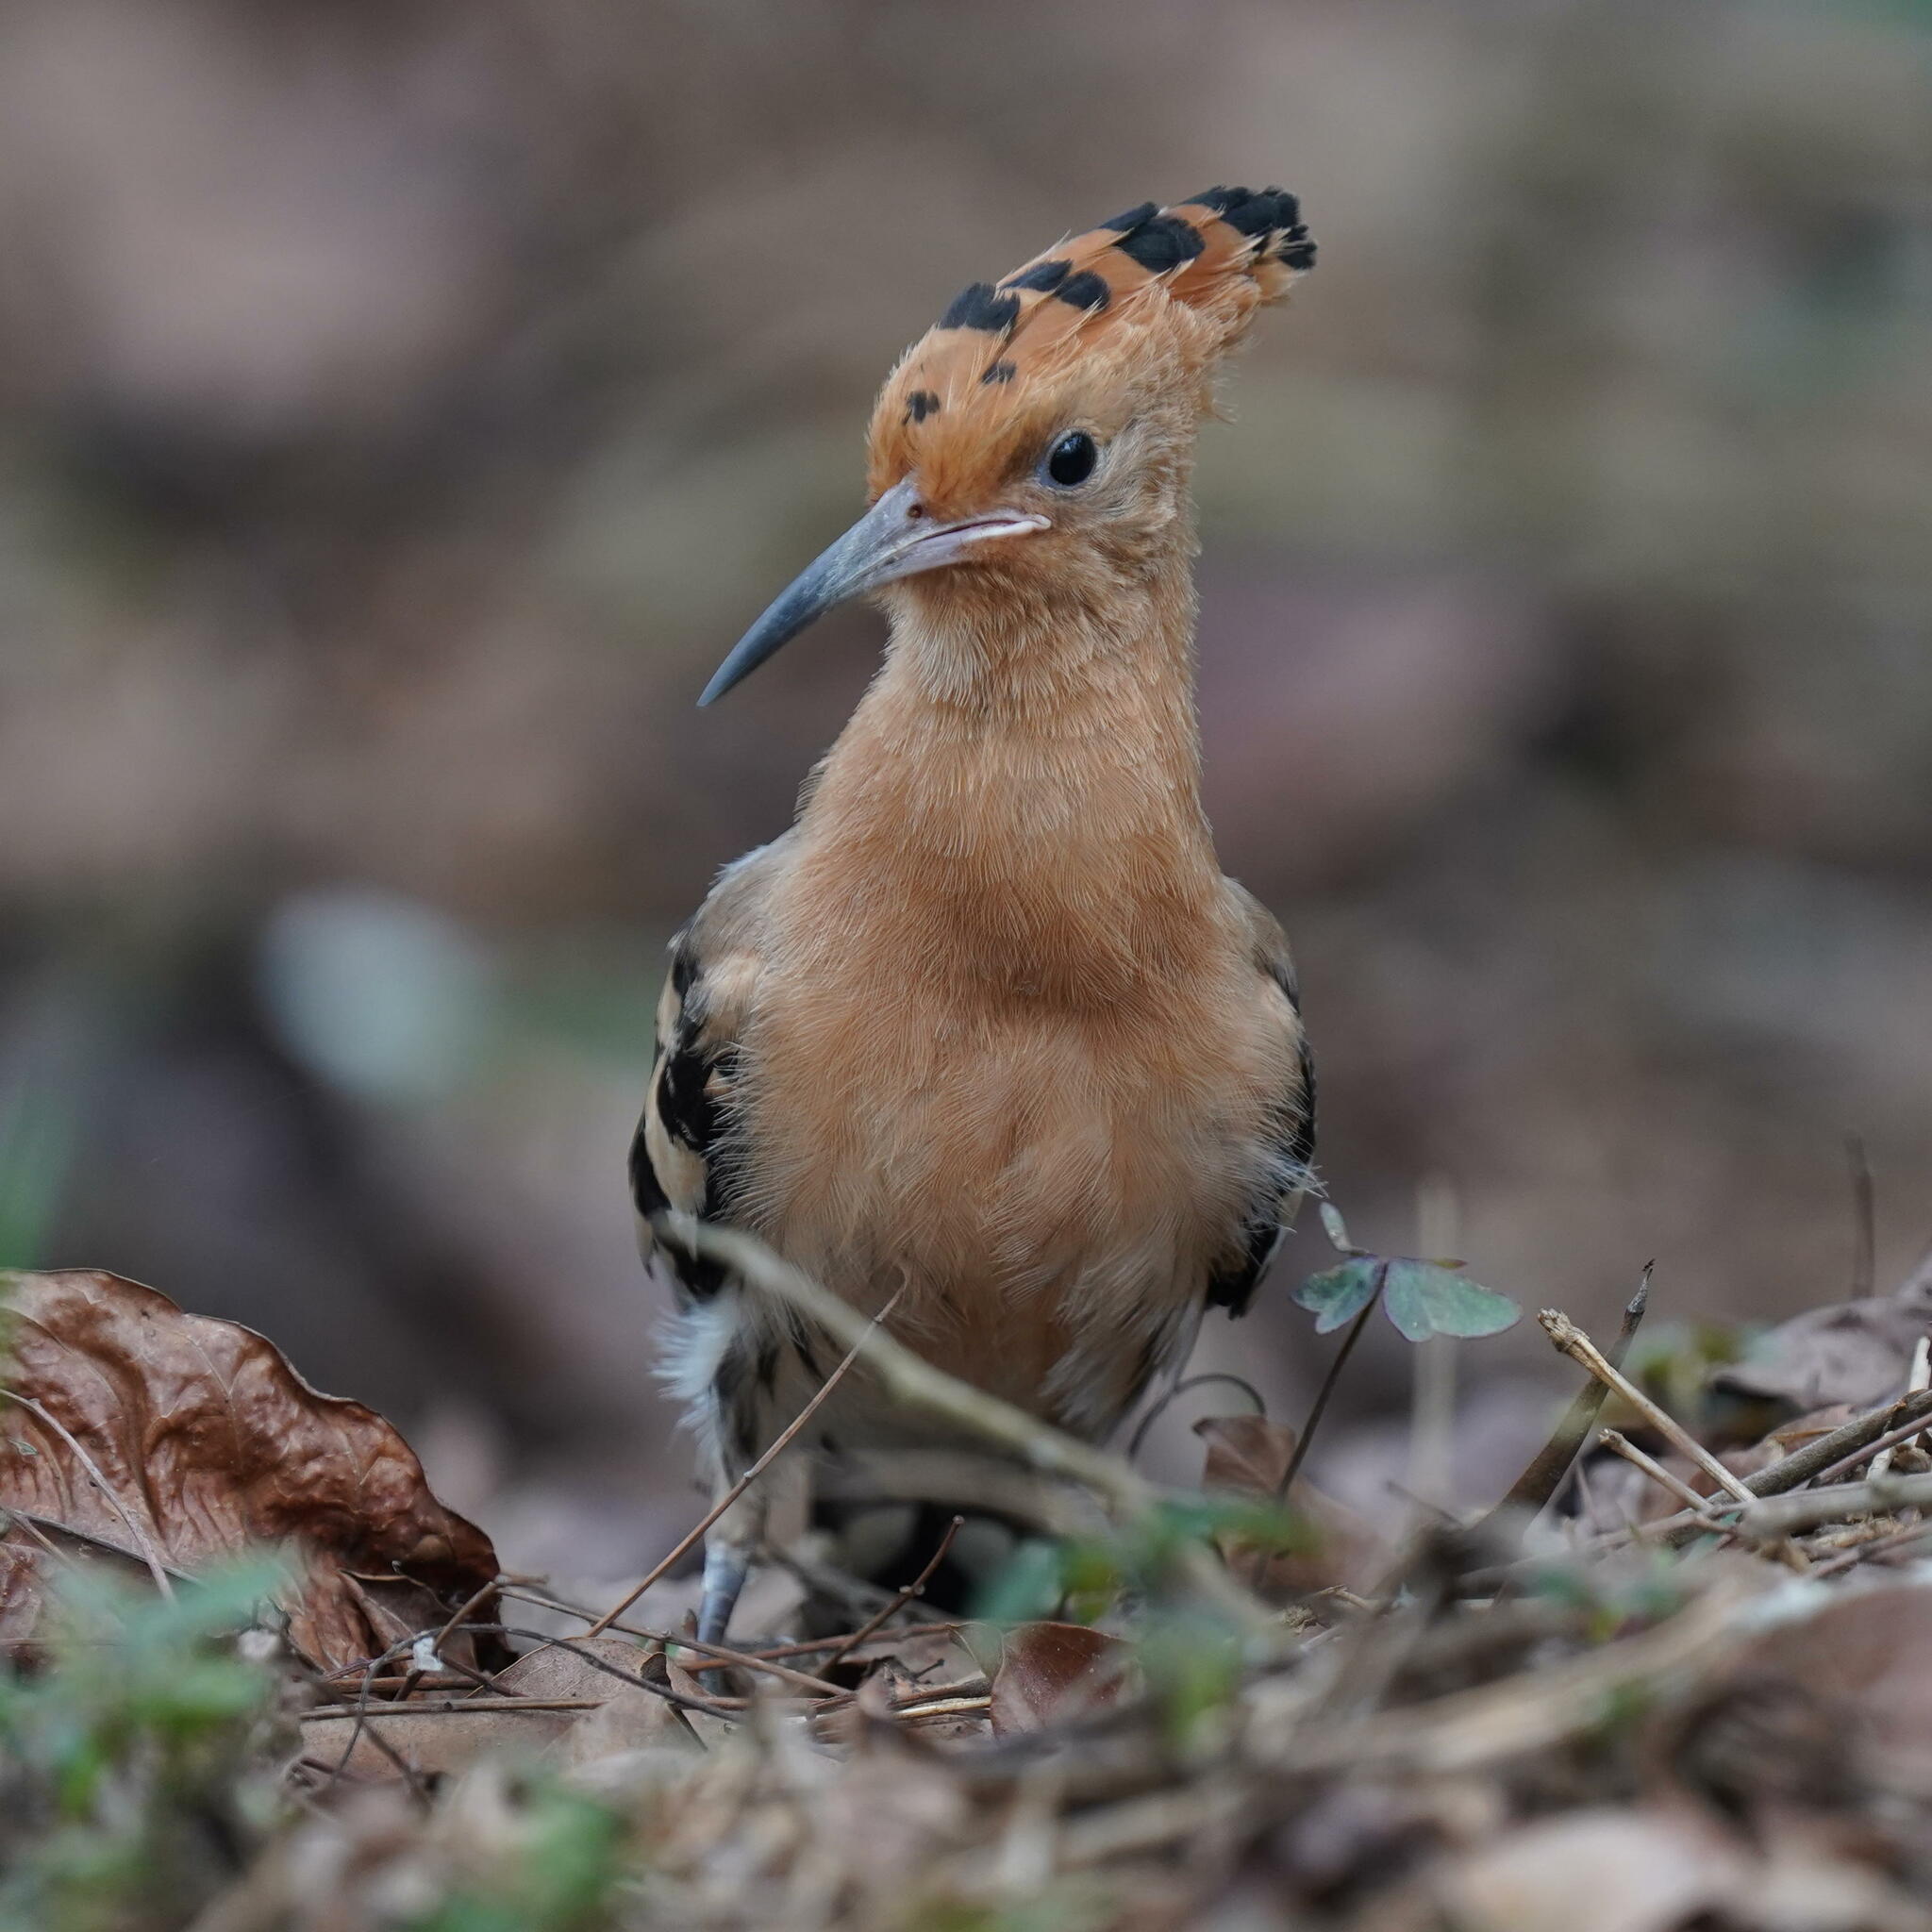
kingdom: Animalia
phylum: Chordata
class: Aves
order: Bucerotiformes
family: Upupidae
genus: Upupa
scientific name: Upupa epops
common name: Eurasian hoopoe
